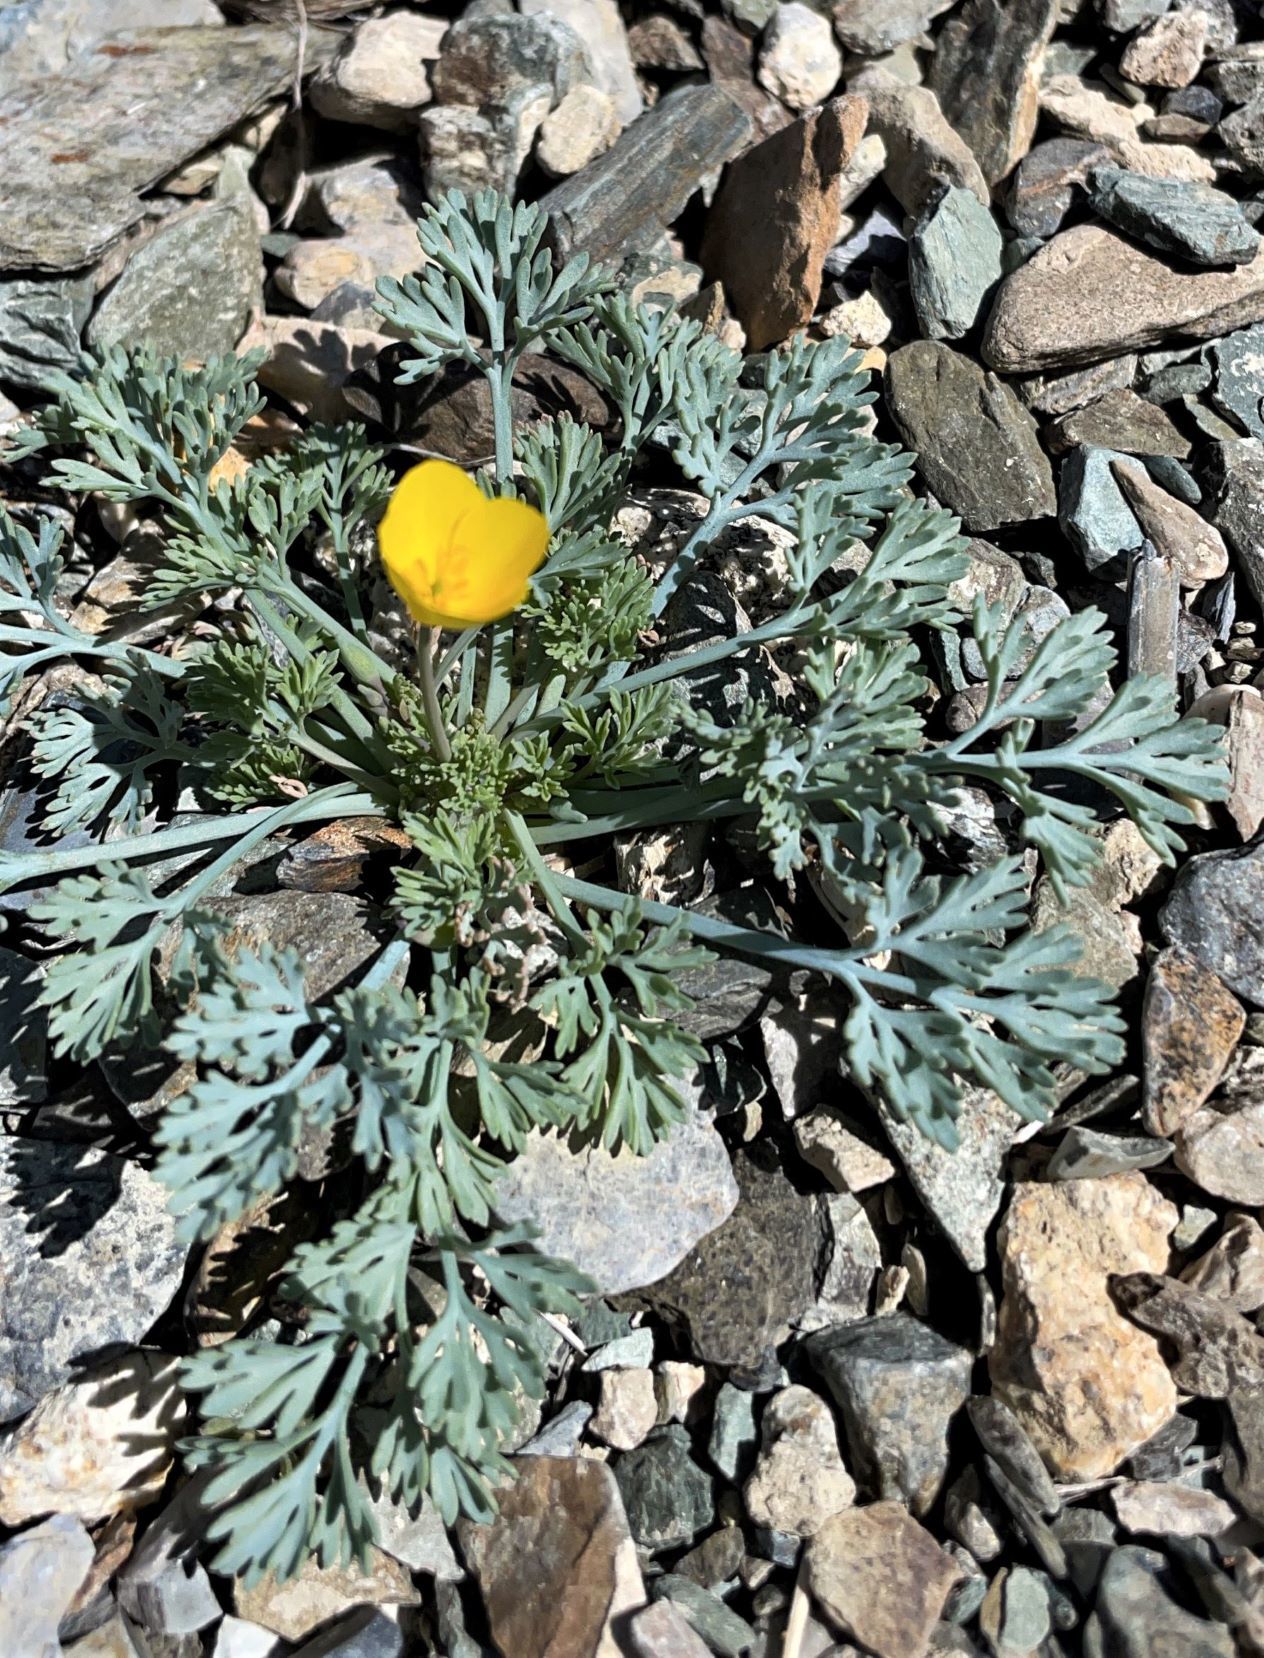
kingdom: Plantae
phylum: Tracheophyta
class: Magnoliopsida
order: Ranunculales
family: Papaveraceae
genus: Eschscholzia
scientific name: Eschscholzia minutiflora
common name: Small-flower california-poppy
